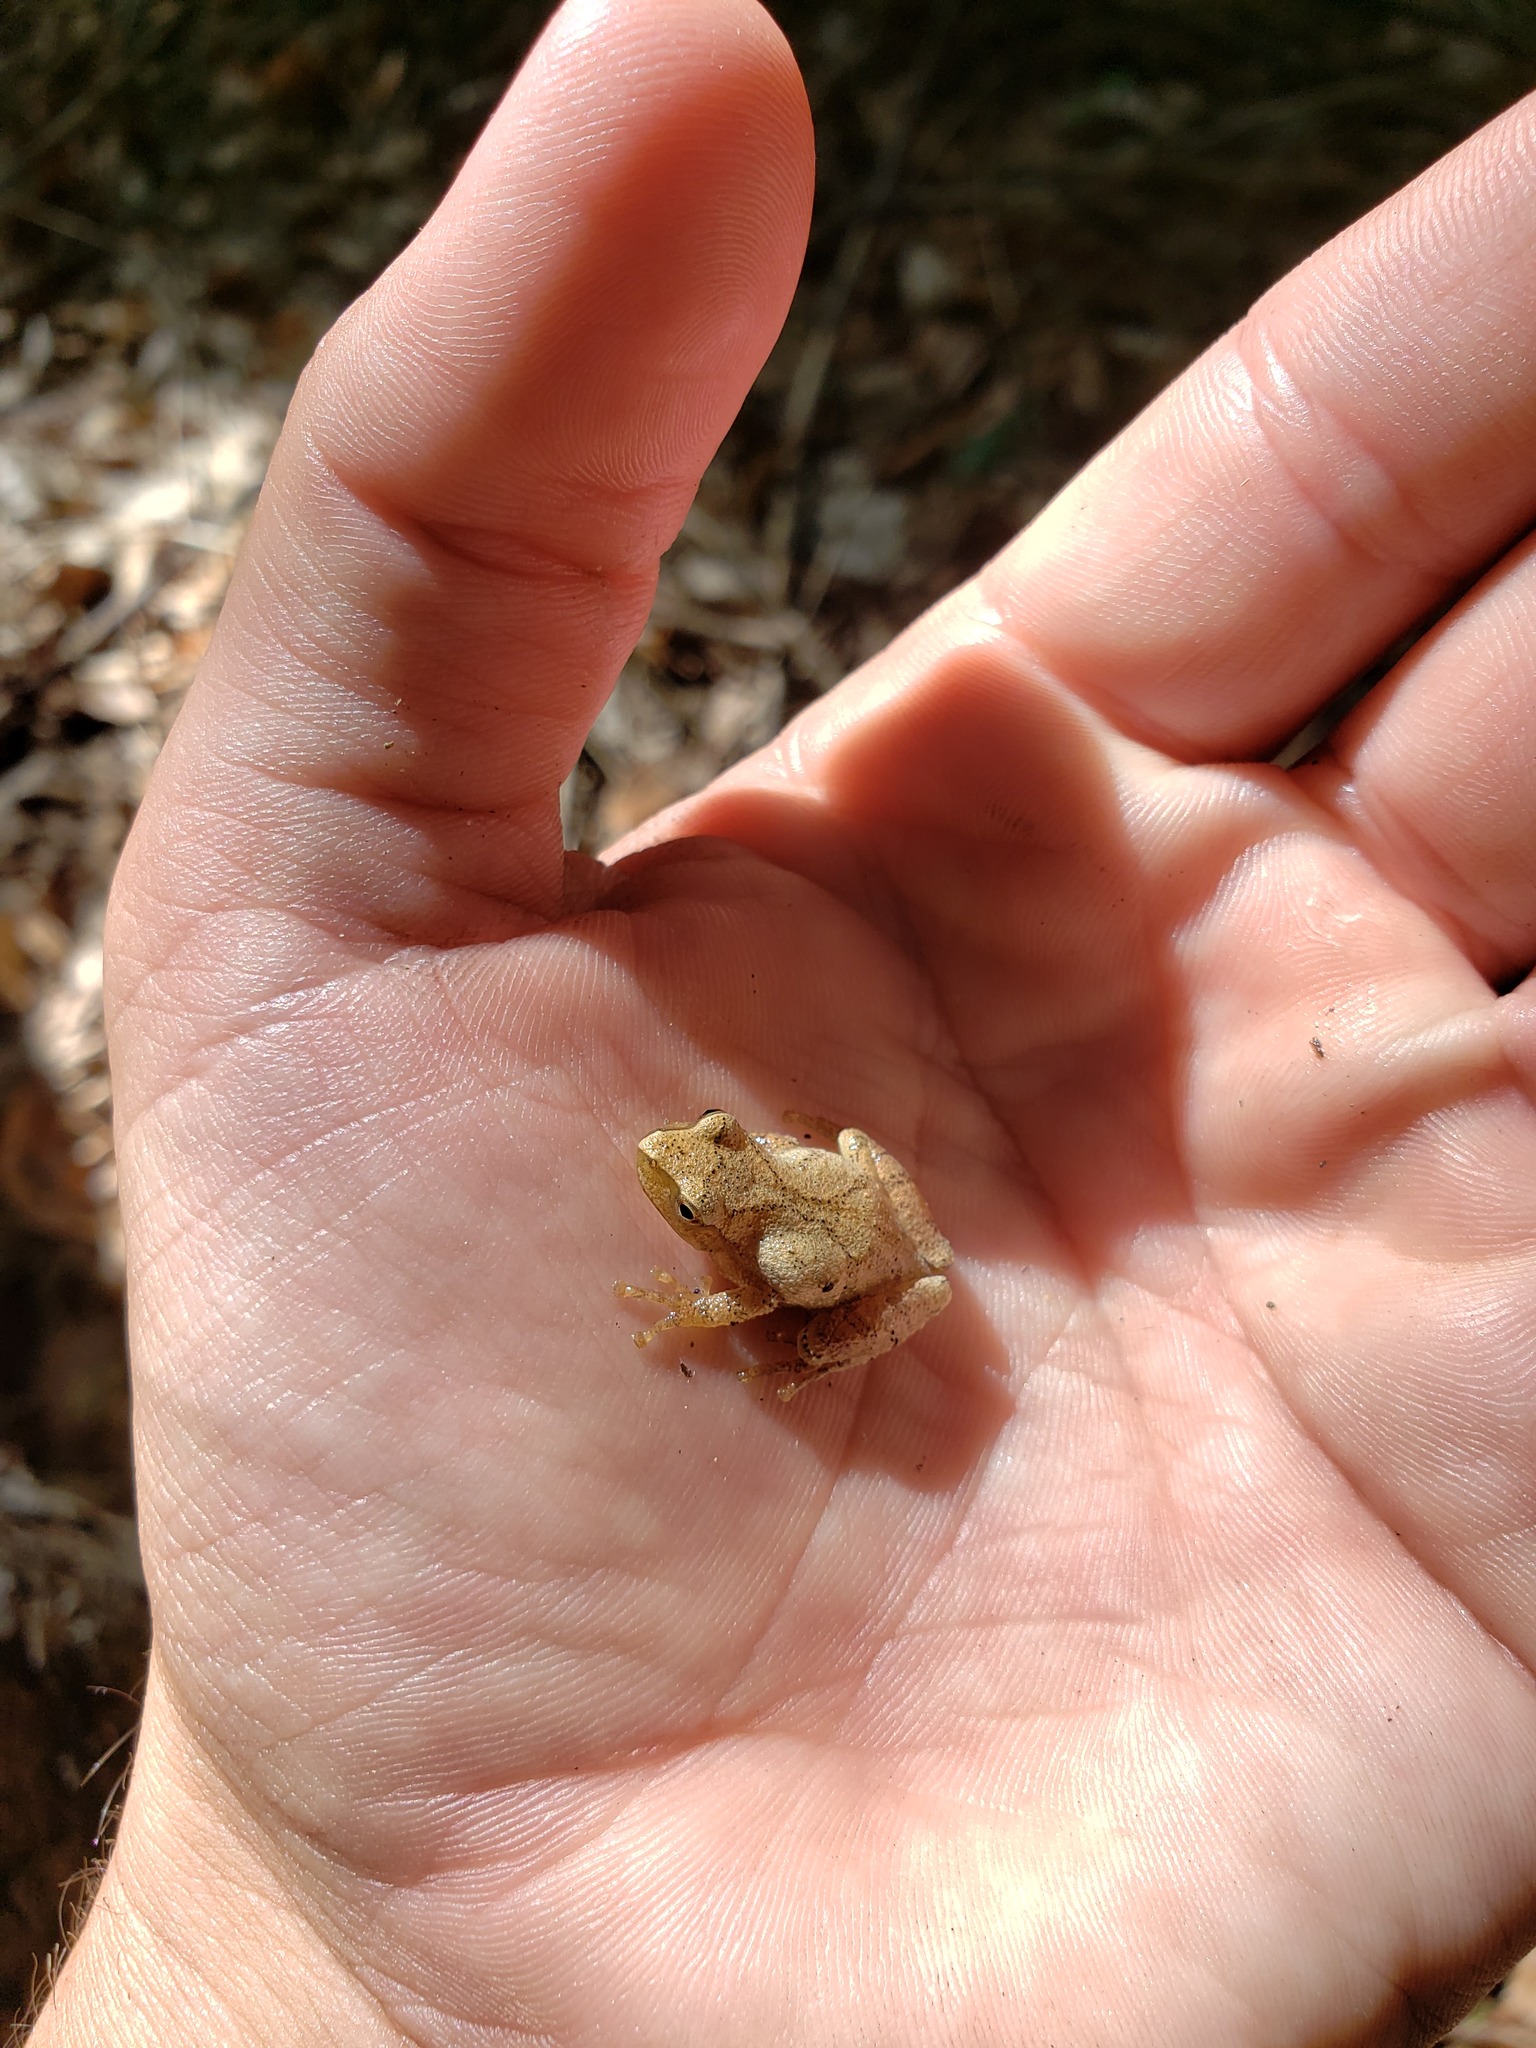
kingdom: Animalia
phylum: Chordata
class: Amphibia
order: Anura
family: Hylidae
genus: Pseudacris
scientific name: Pseudacris crucifer
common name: Spring peeper
